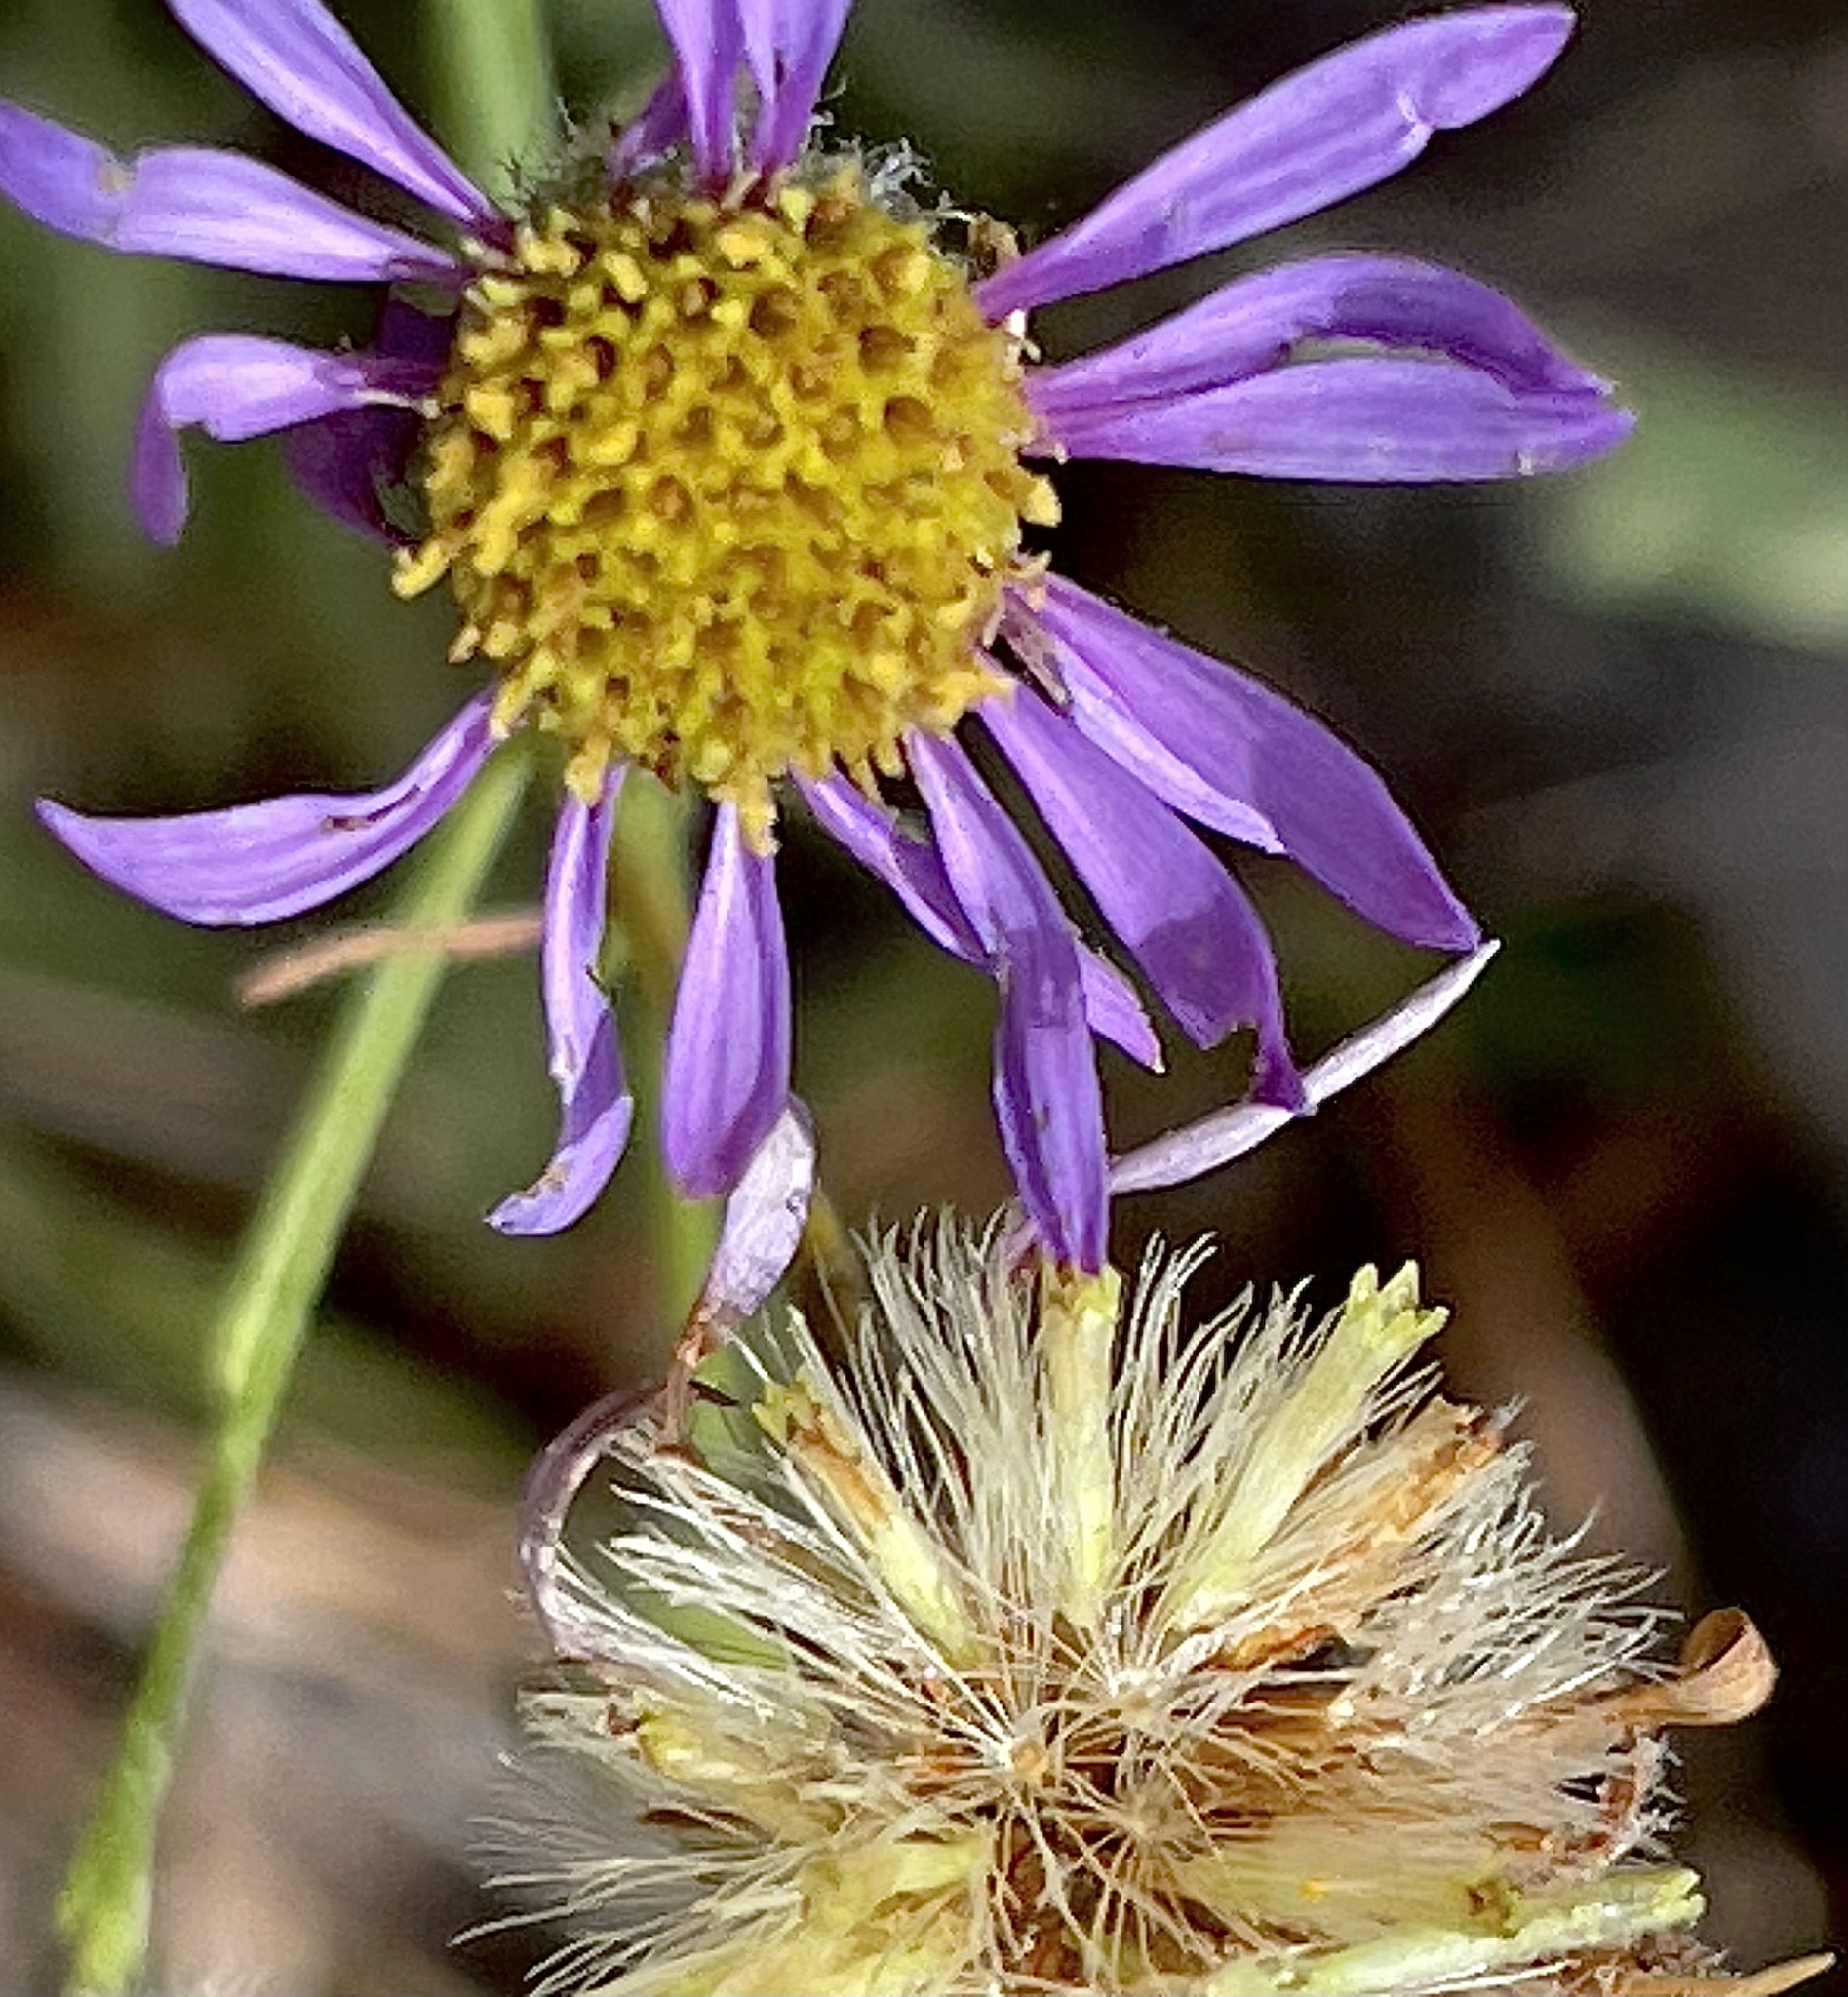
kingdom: Plantae
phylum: Tracheophyta
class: Magnoliopsida
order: Asterales
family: Asteraceae
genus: Erigeron
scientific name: Erigeron foliosus
